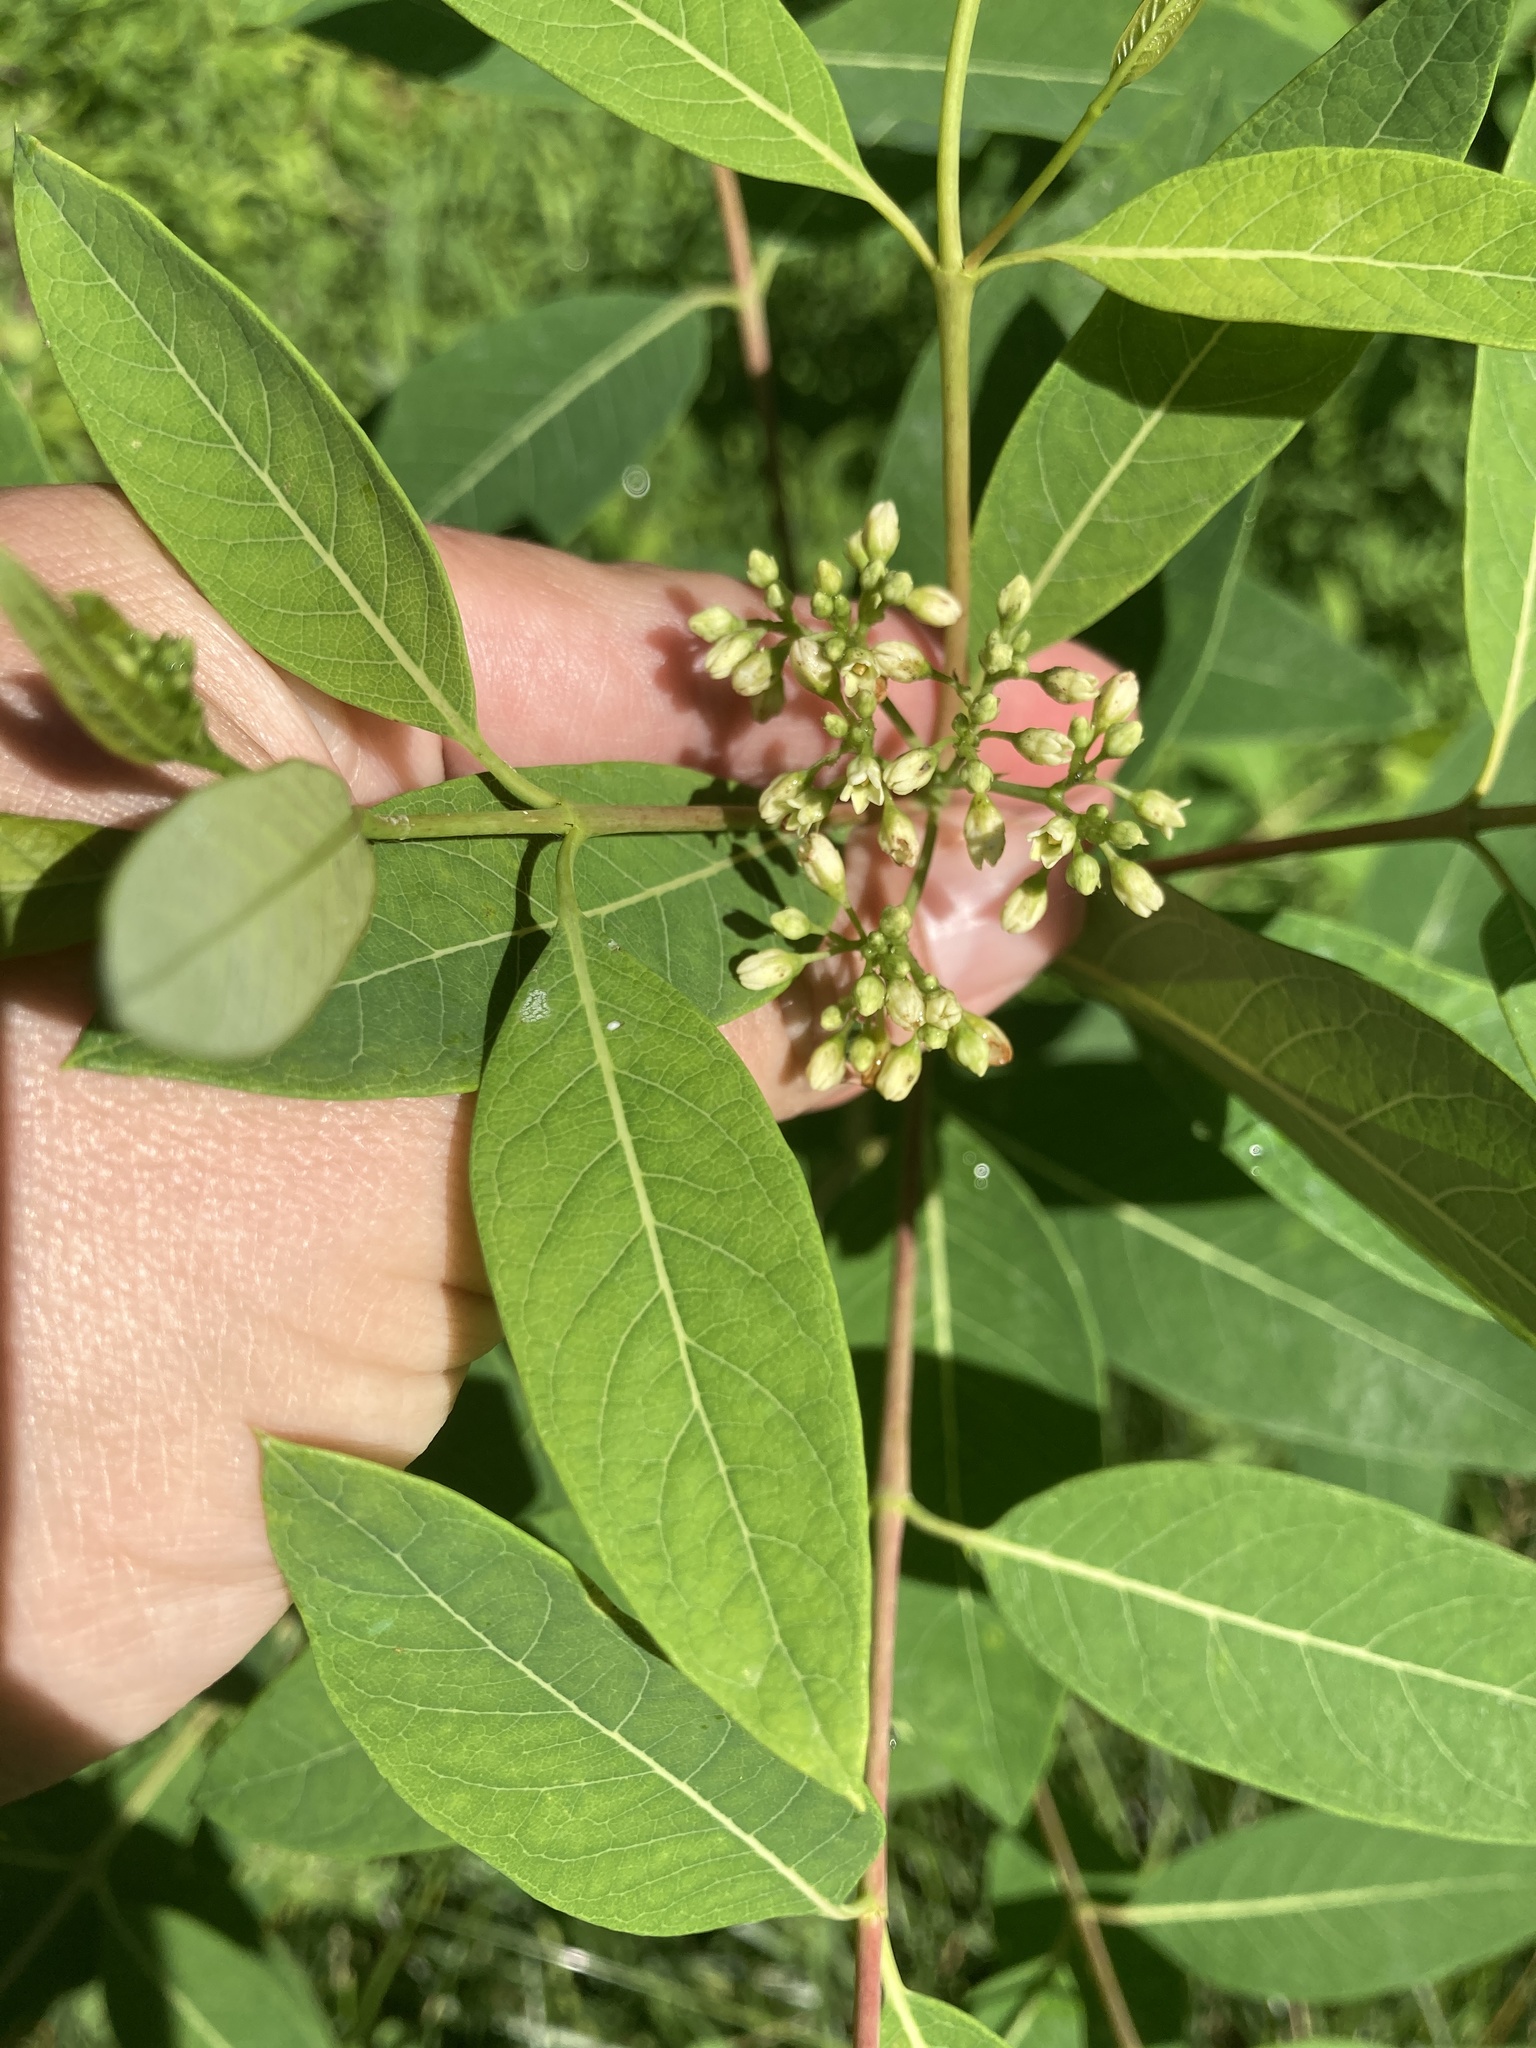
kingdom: Plantae
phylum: Tracheophyta
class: Magnoliopsida
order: Gentianales
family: Apocynaceae
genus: Apocynum
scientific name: Apocynum cannabinum
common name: Hemp dogbane
